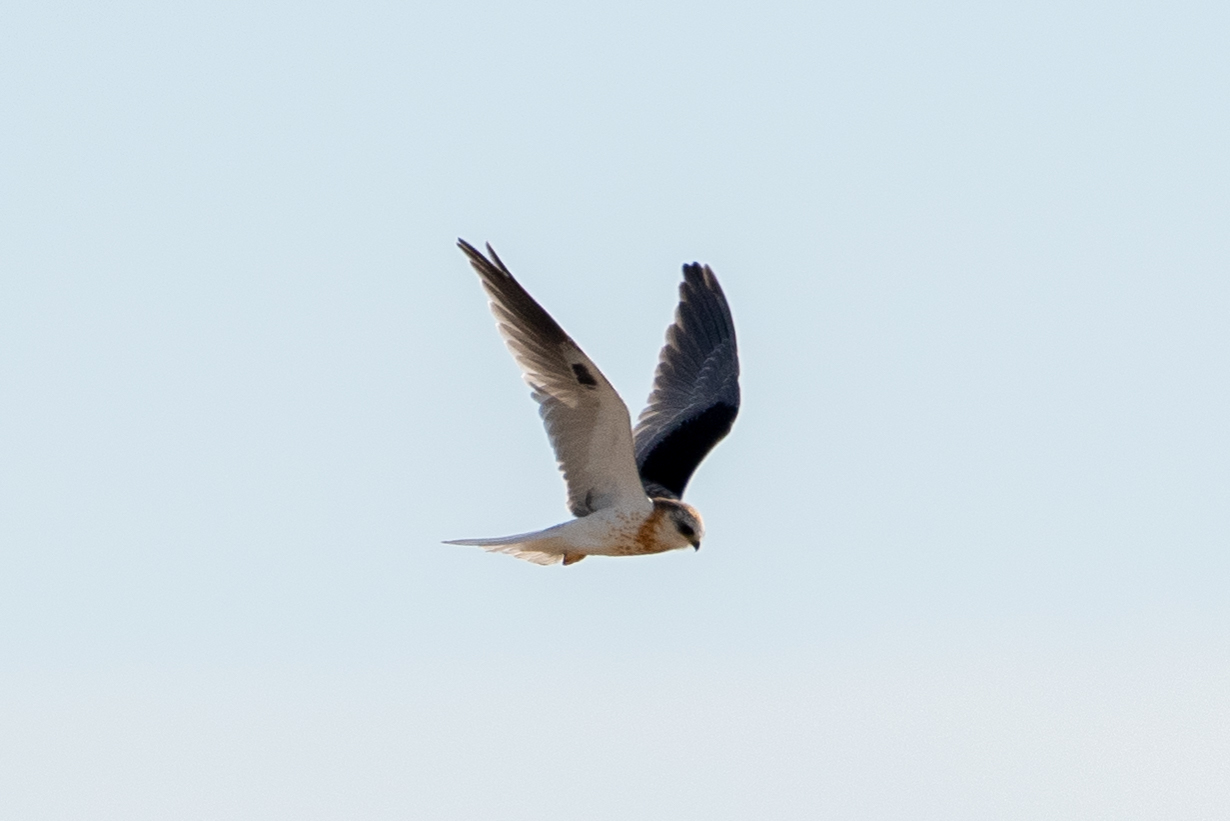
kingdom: Animalia
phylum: Chordata
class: Aves
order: Accipitriformes
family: Accipitridae
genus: Elanus
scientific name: Elanus leucurus
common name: White-tailed kite
